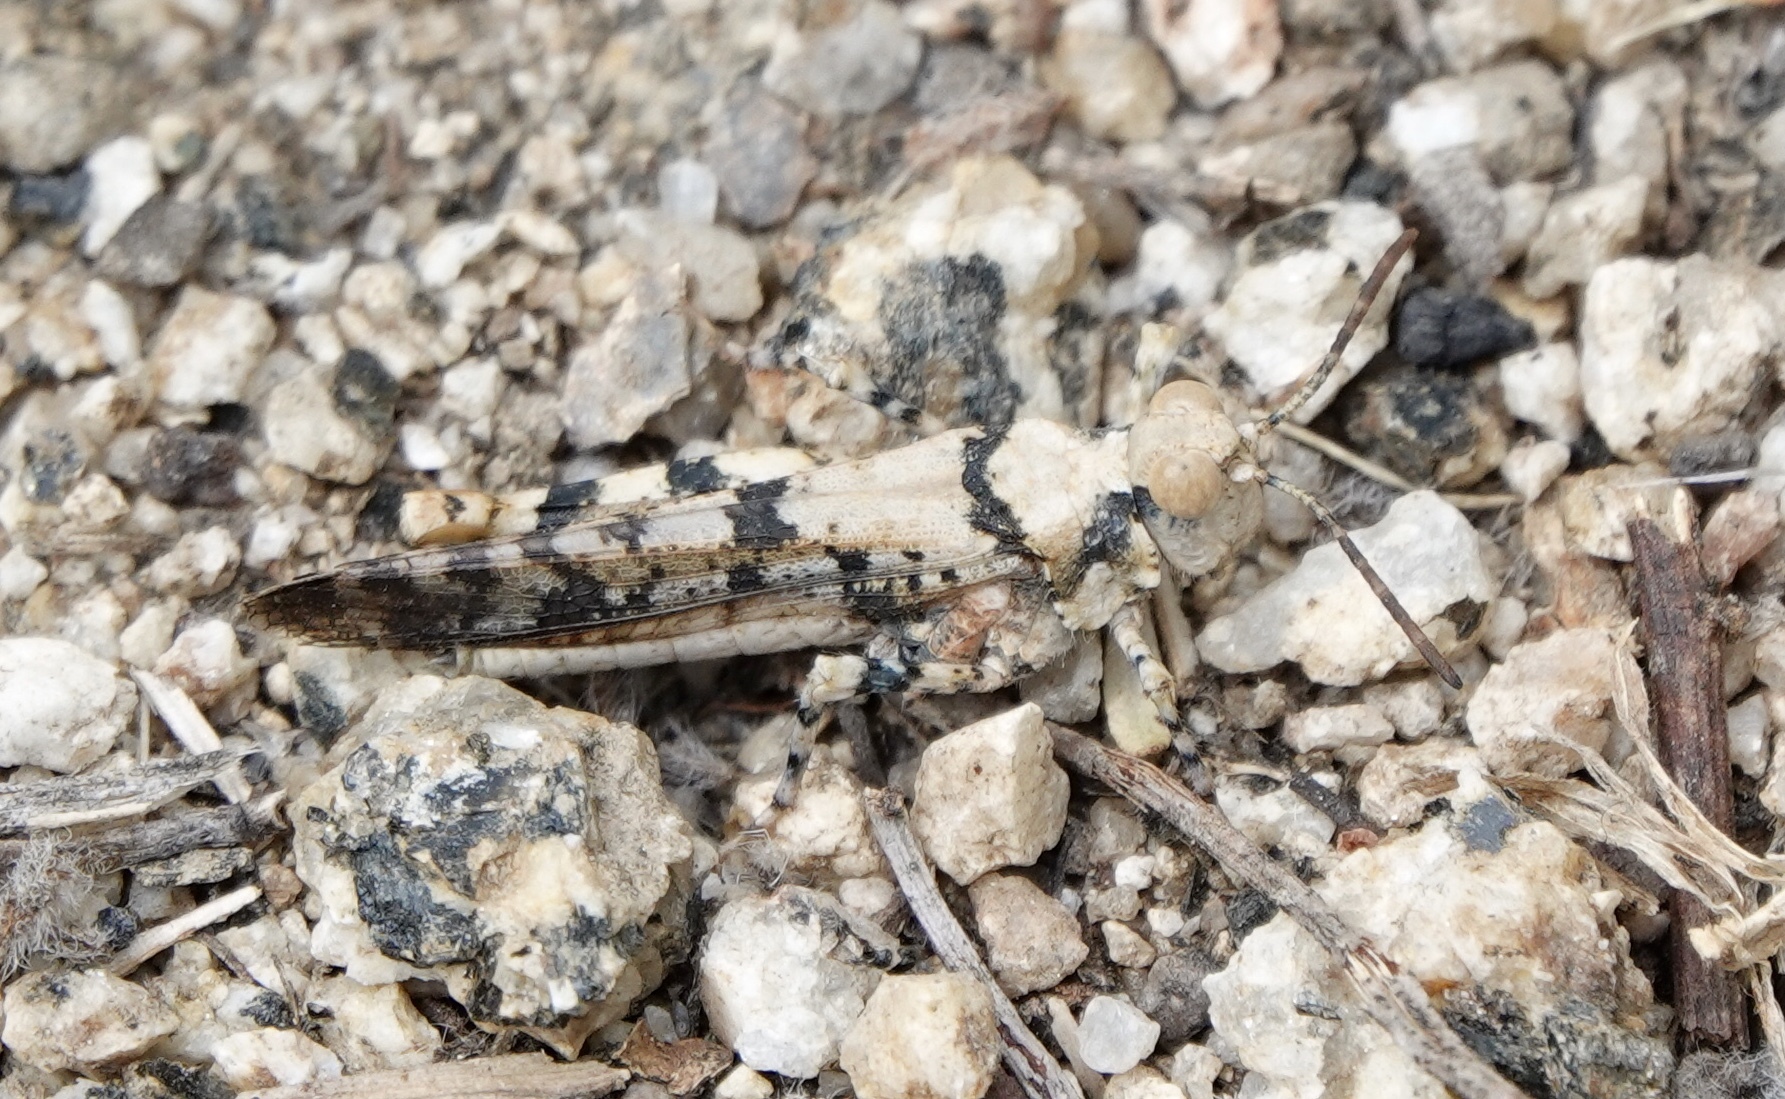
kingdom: Animalia
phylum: Arthropoda
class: Insecta
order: Orthoptera
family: Acrididae
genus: Cibolacris
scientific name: Cibolacris parviceps
